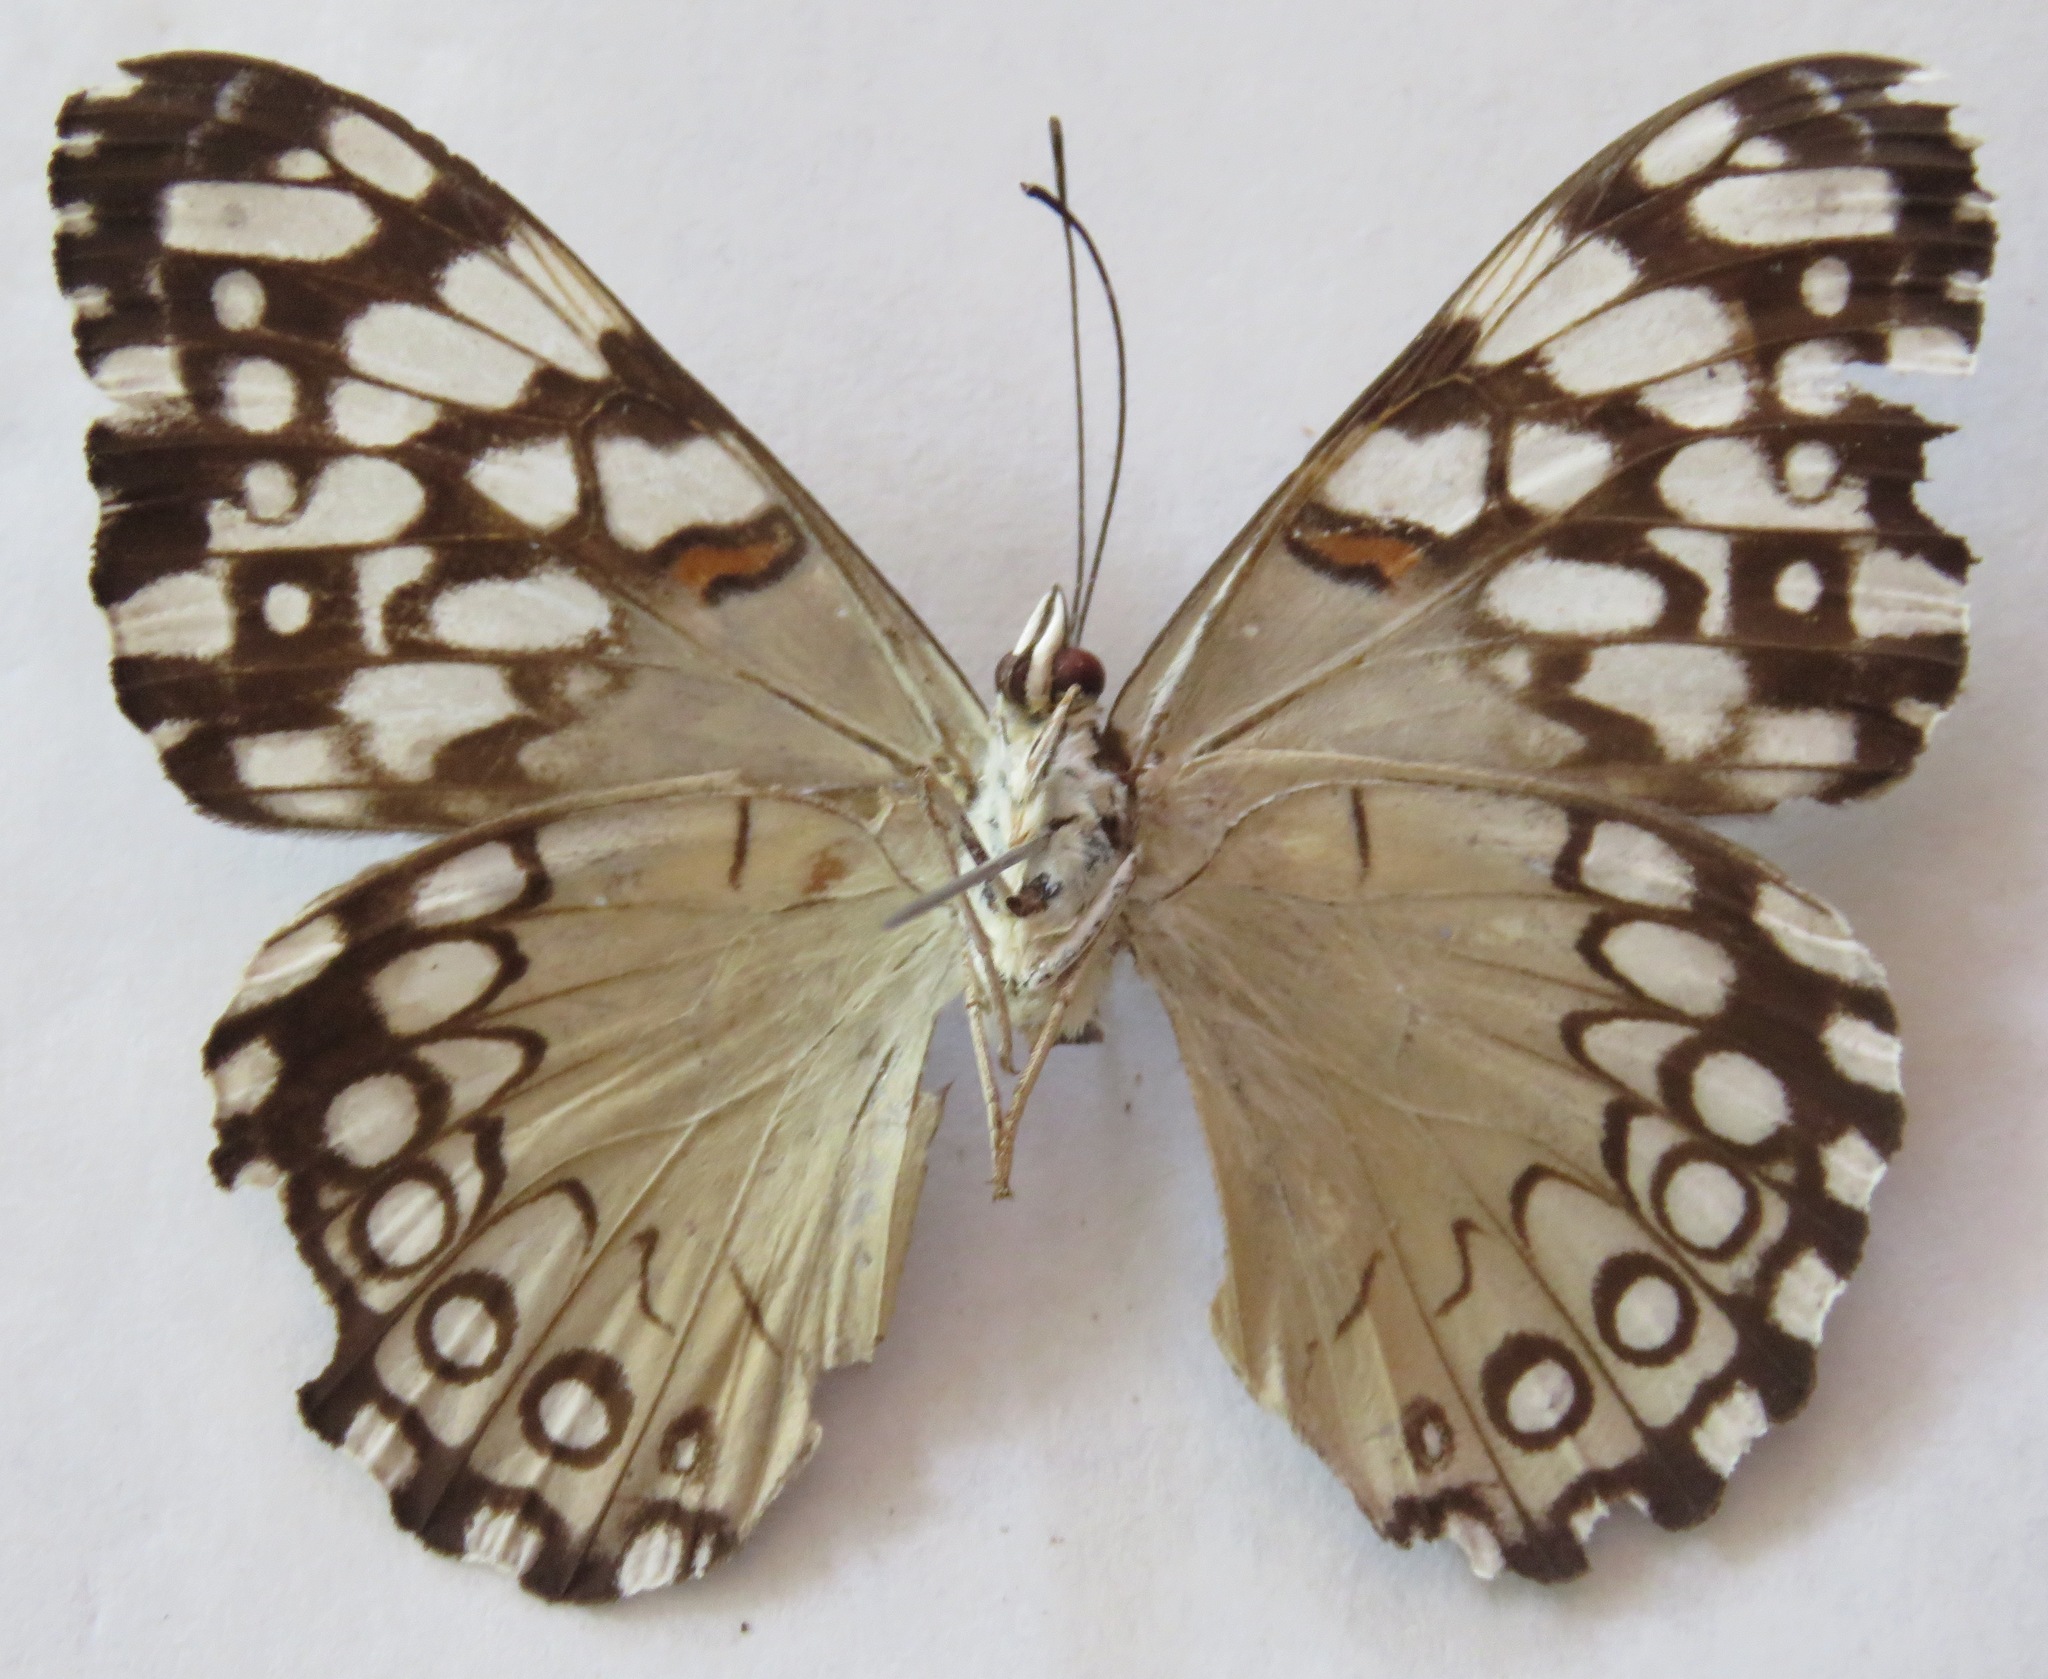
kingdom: Animalia
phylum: Arthropoda
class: Insecta
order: Lepidoptera
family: Nymphalidae
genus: Hamadryas
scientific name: Hamadryas feronia
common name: Variable cracker
